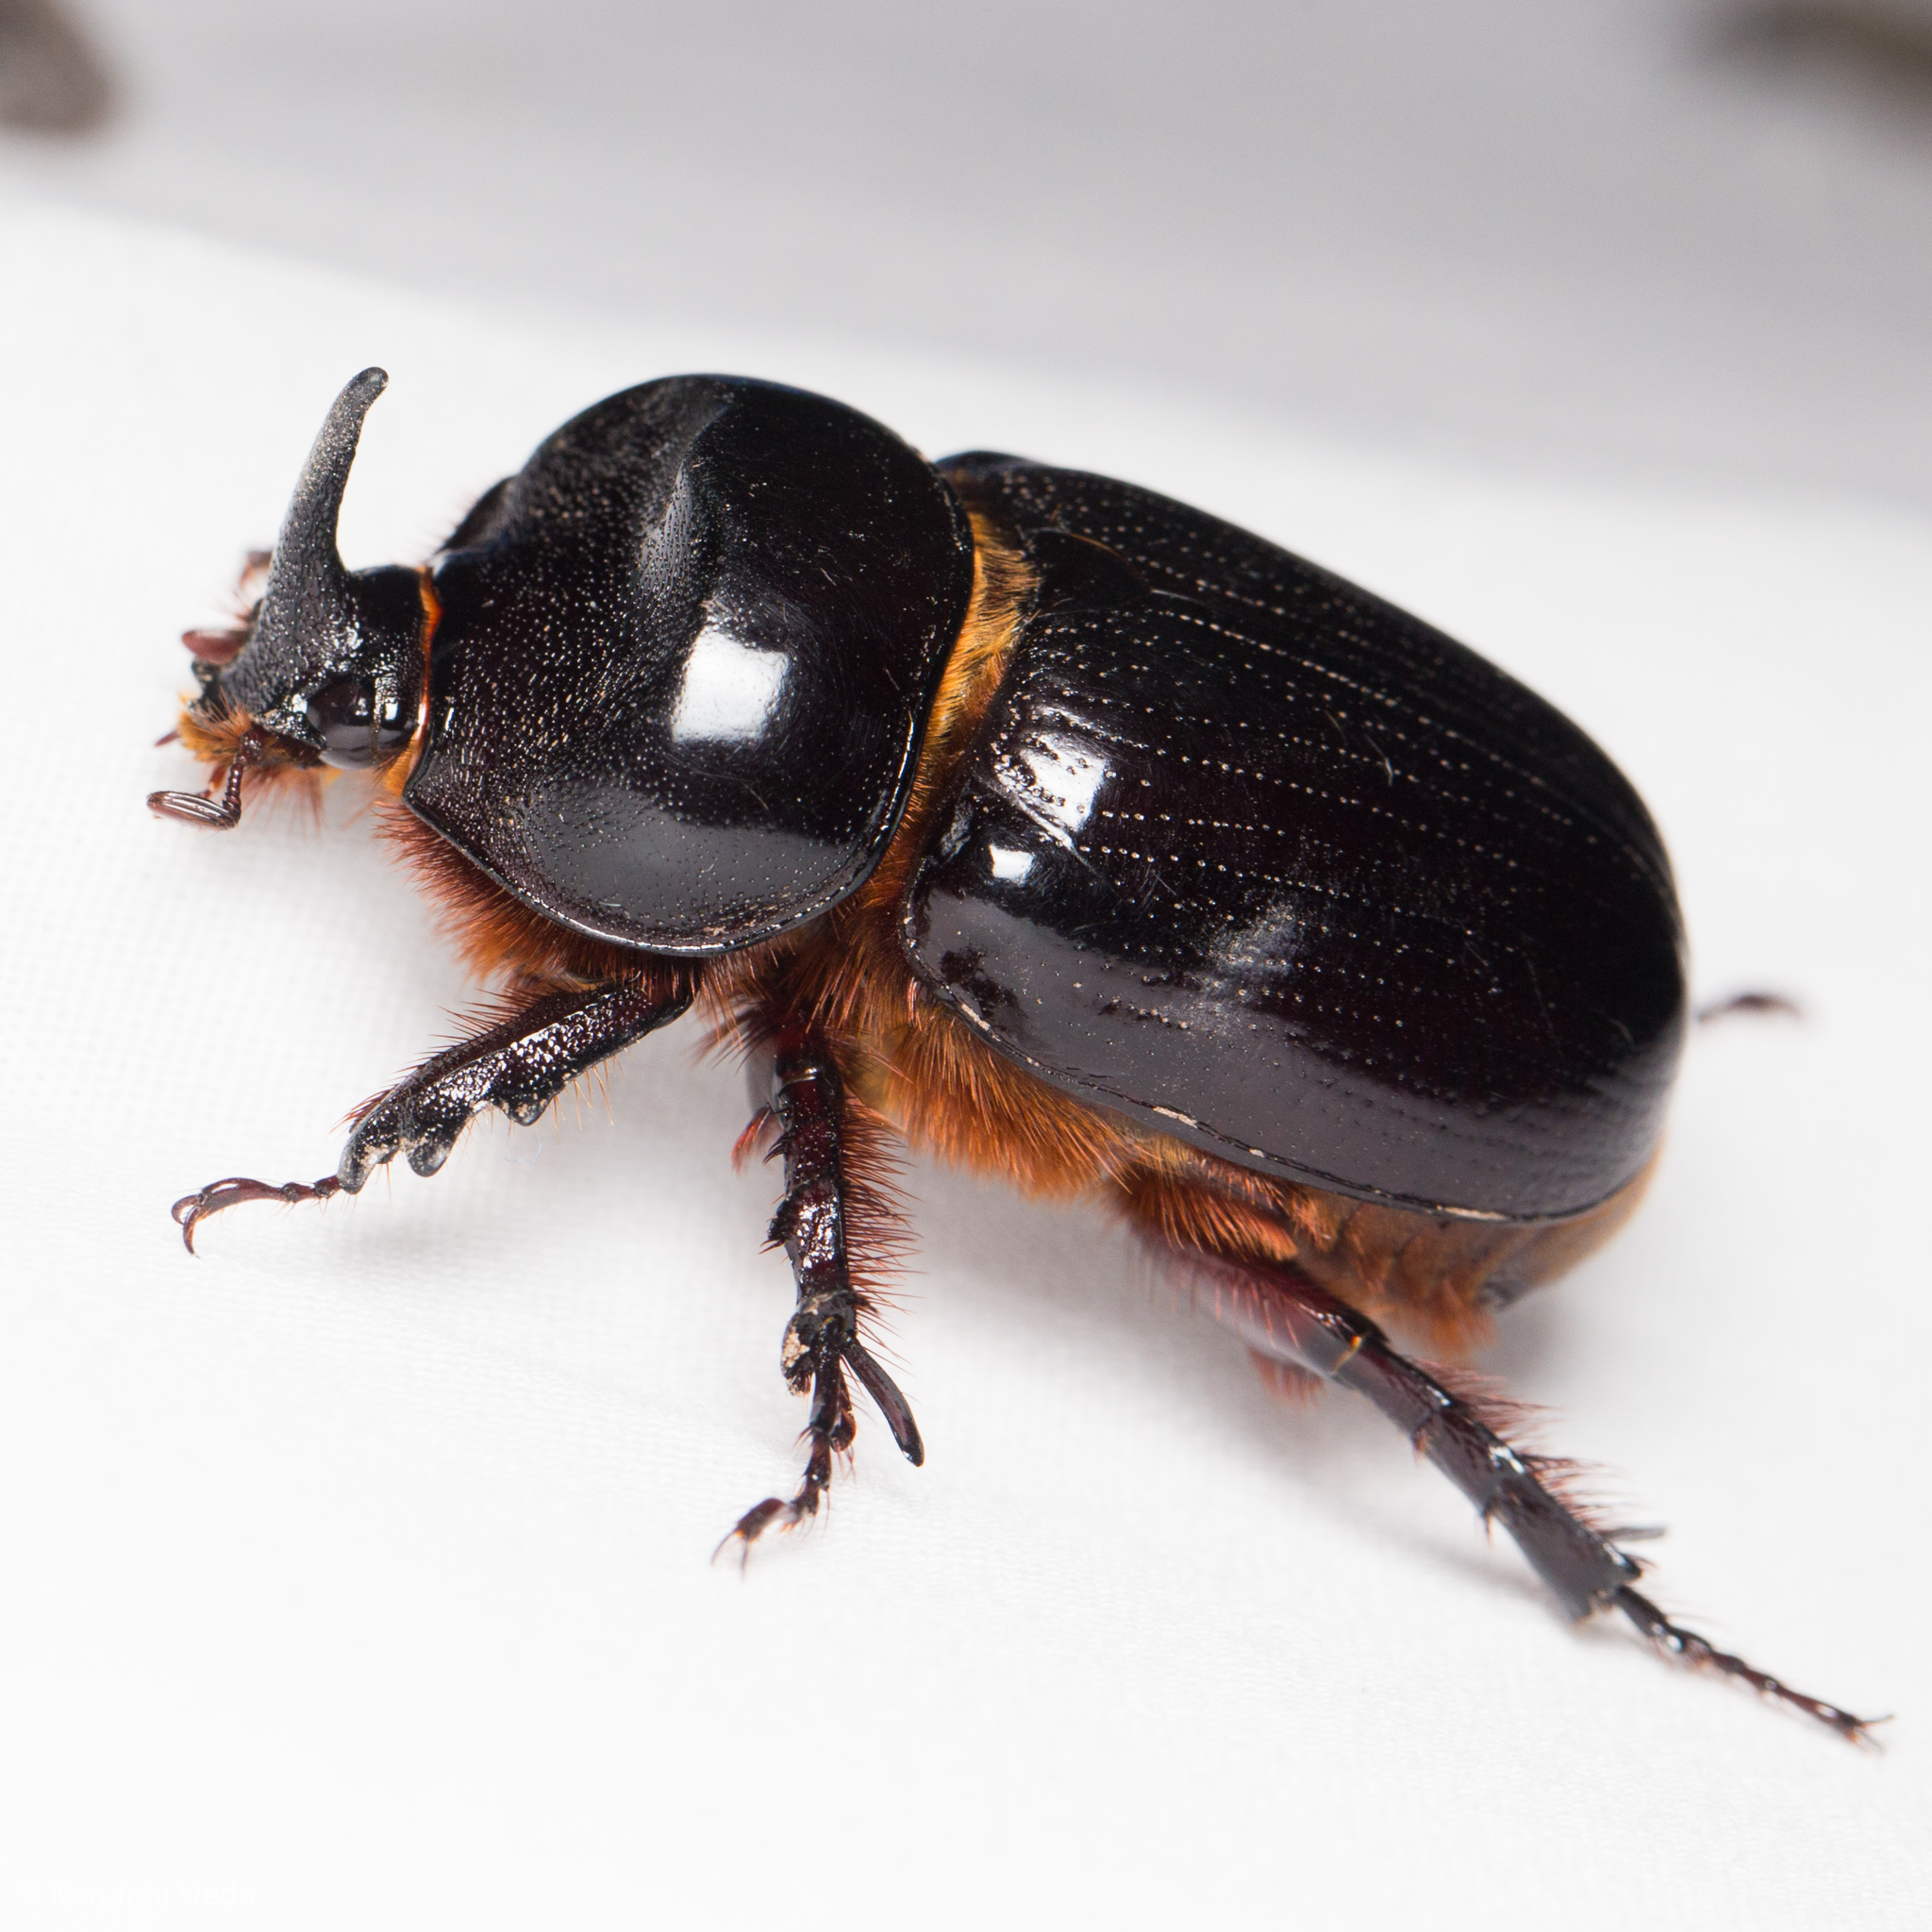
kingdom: Animalia
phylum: Arthropoda
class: Insecta
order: Coleoptera
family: Scarabaeidae
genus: Xyloryctes
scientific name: Xyloryctes thestalus
